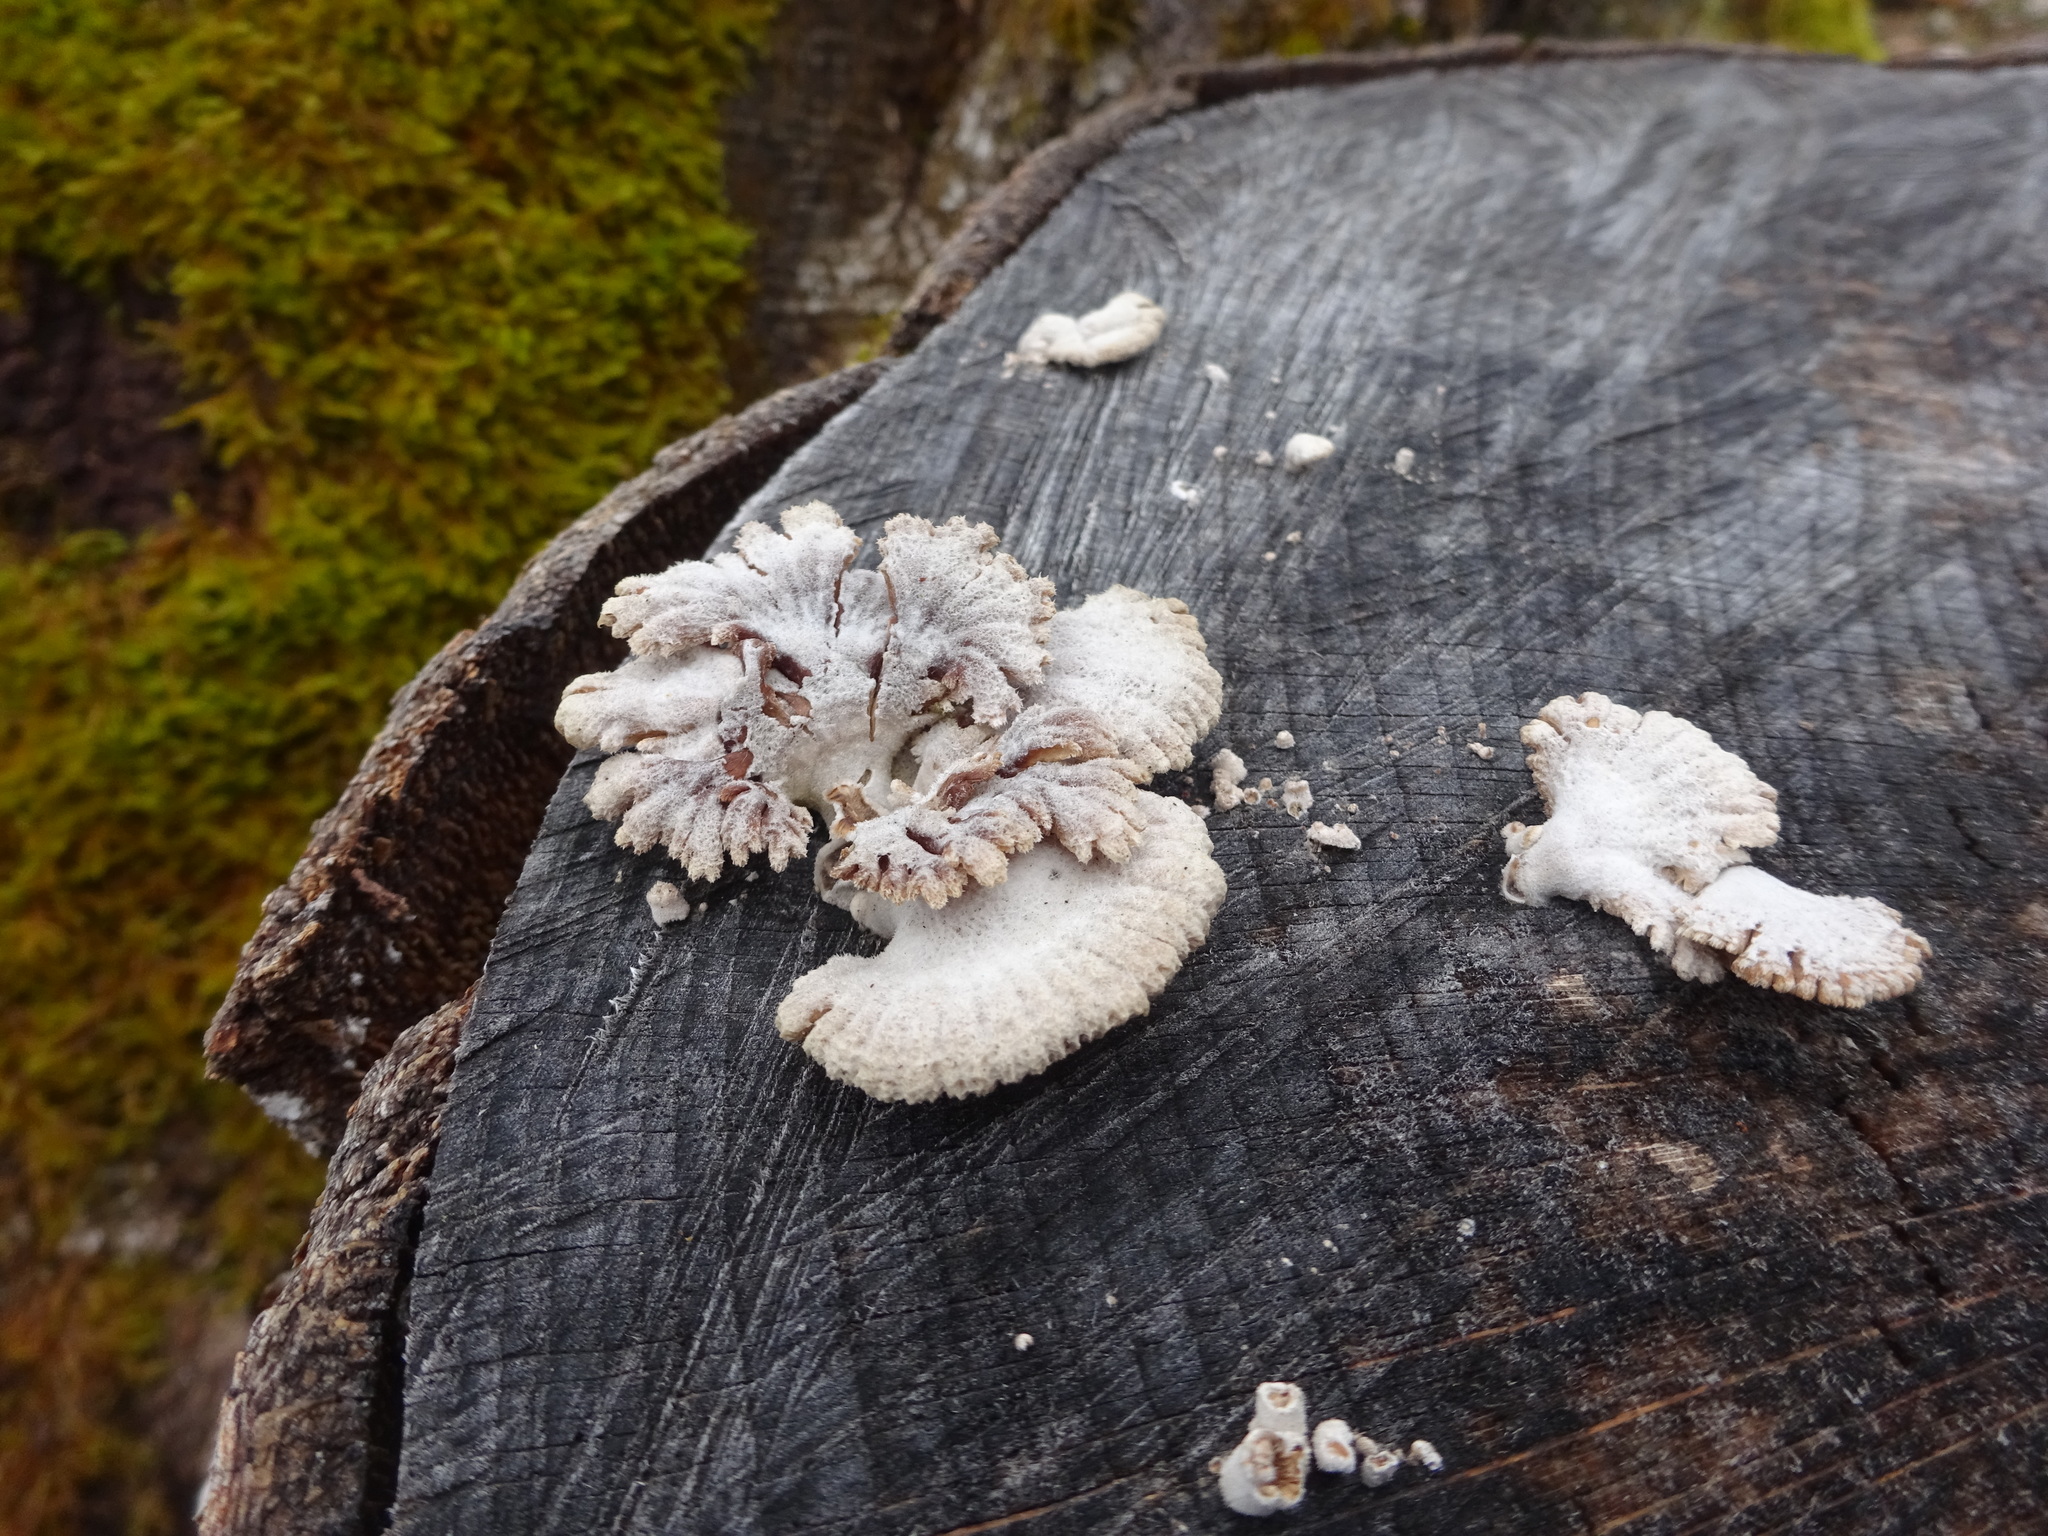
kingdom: Fungi
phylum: Basidiomycota
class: Agaricomycetes
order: Agaricales
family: Schizophyllaceae
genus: Schizophyllum
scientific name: Schizophyllum commune
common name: Common porecrust
